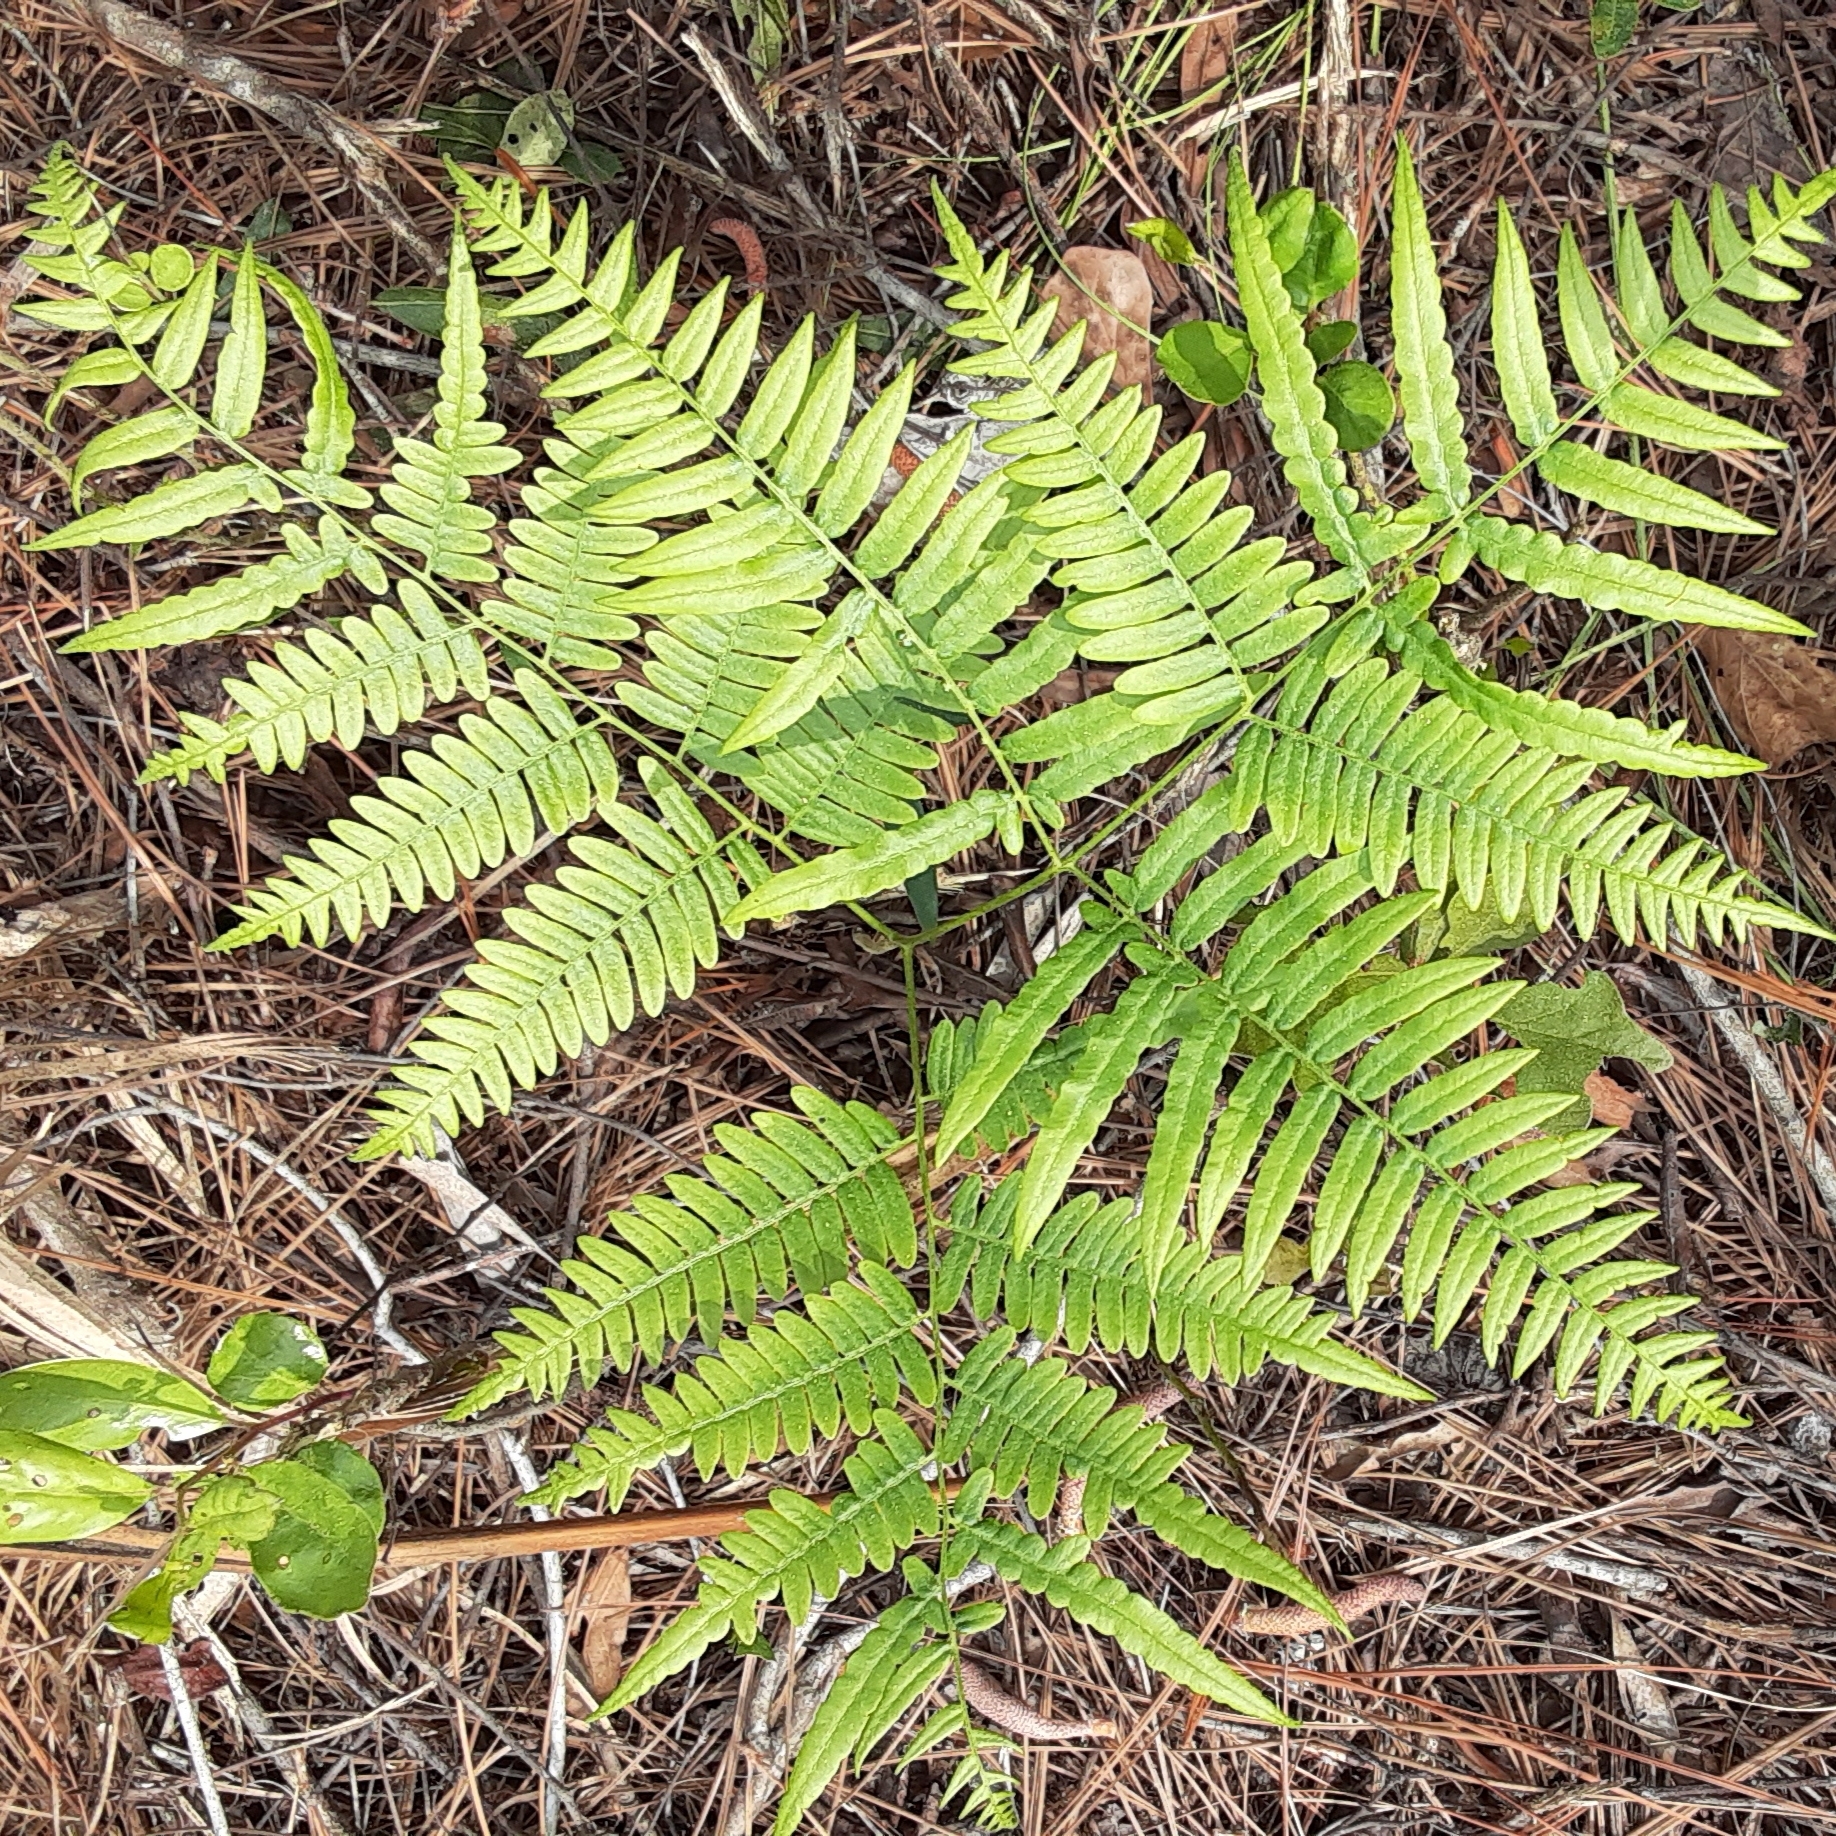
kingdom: Plantae
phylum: Tracheophyta
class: Polypodiopsida
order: Polypodiales
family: Dennstaedtiaceae
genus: Pteridium
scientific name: Pteridium aquilinum
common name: Bracken
